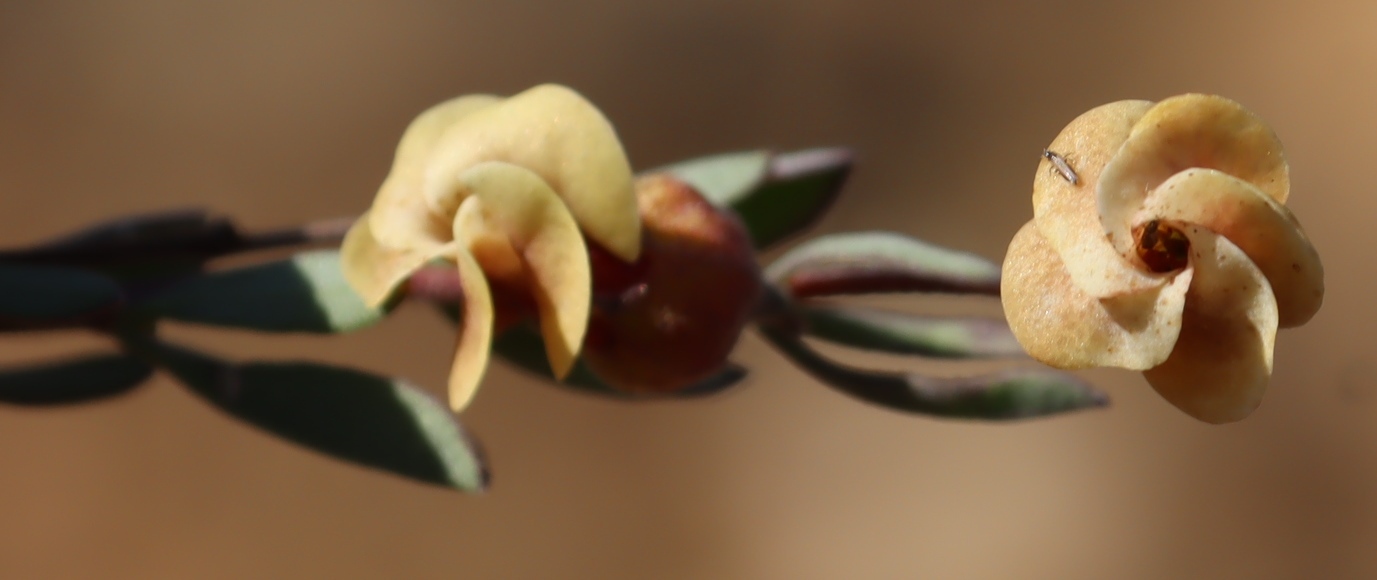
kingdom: Plantae
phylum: Tracheophyta
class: Magnoliopsida
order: Malvales
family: Malvaceae
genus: Hermannia
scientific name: Hermannia gracilis
